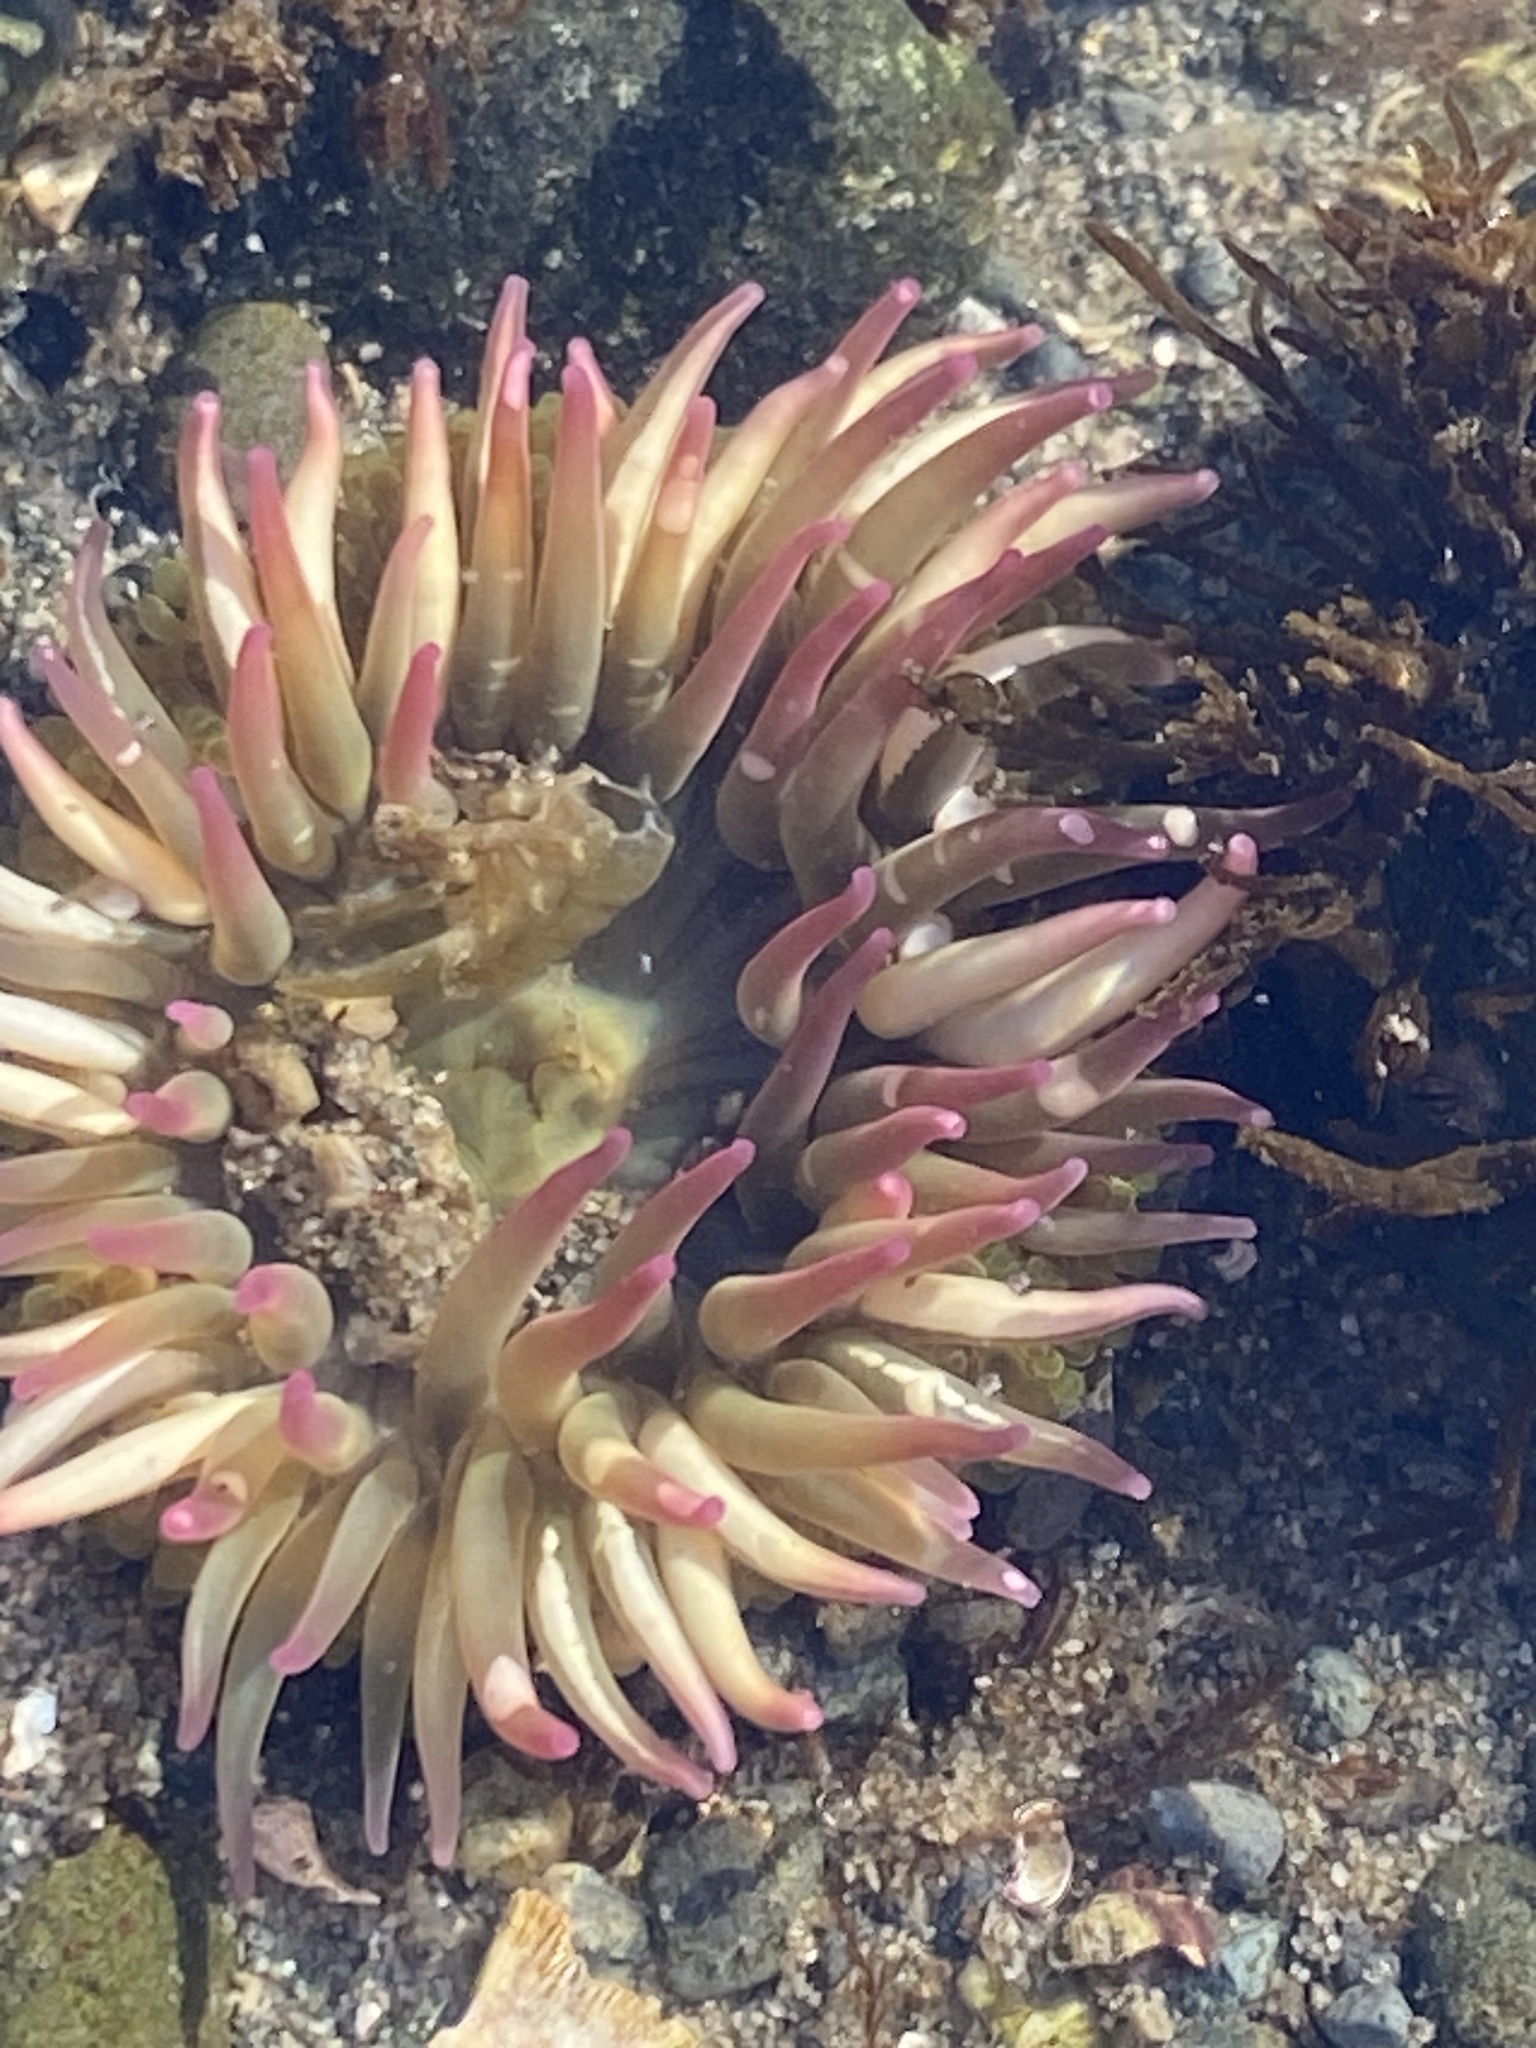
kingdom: Animalia
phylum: Cnidaria
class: Anthozoa
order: Actiniaria
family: Actiniidae
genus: Anthopleura
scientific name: Anthopleura elegantissima
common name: Clonal anemone
